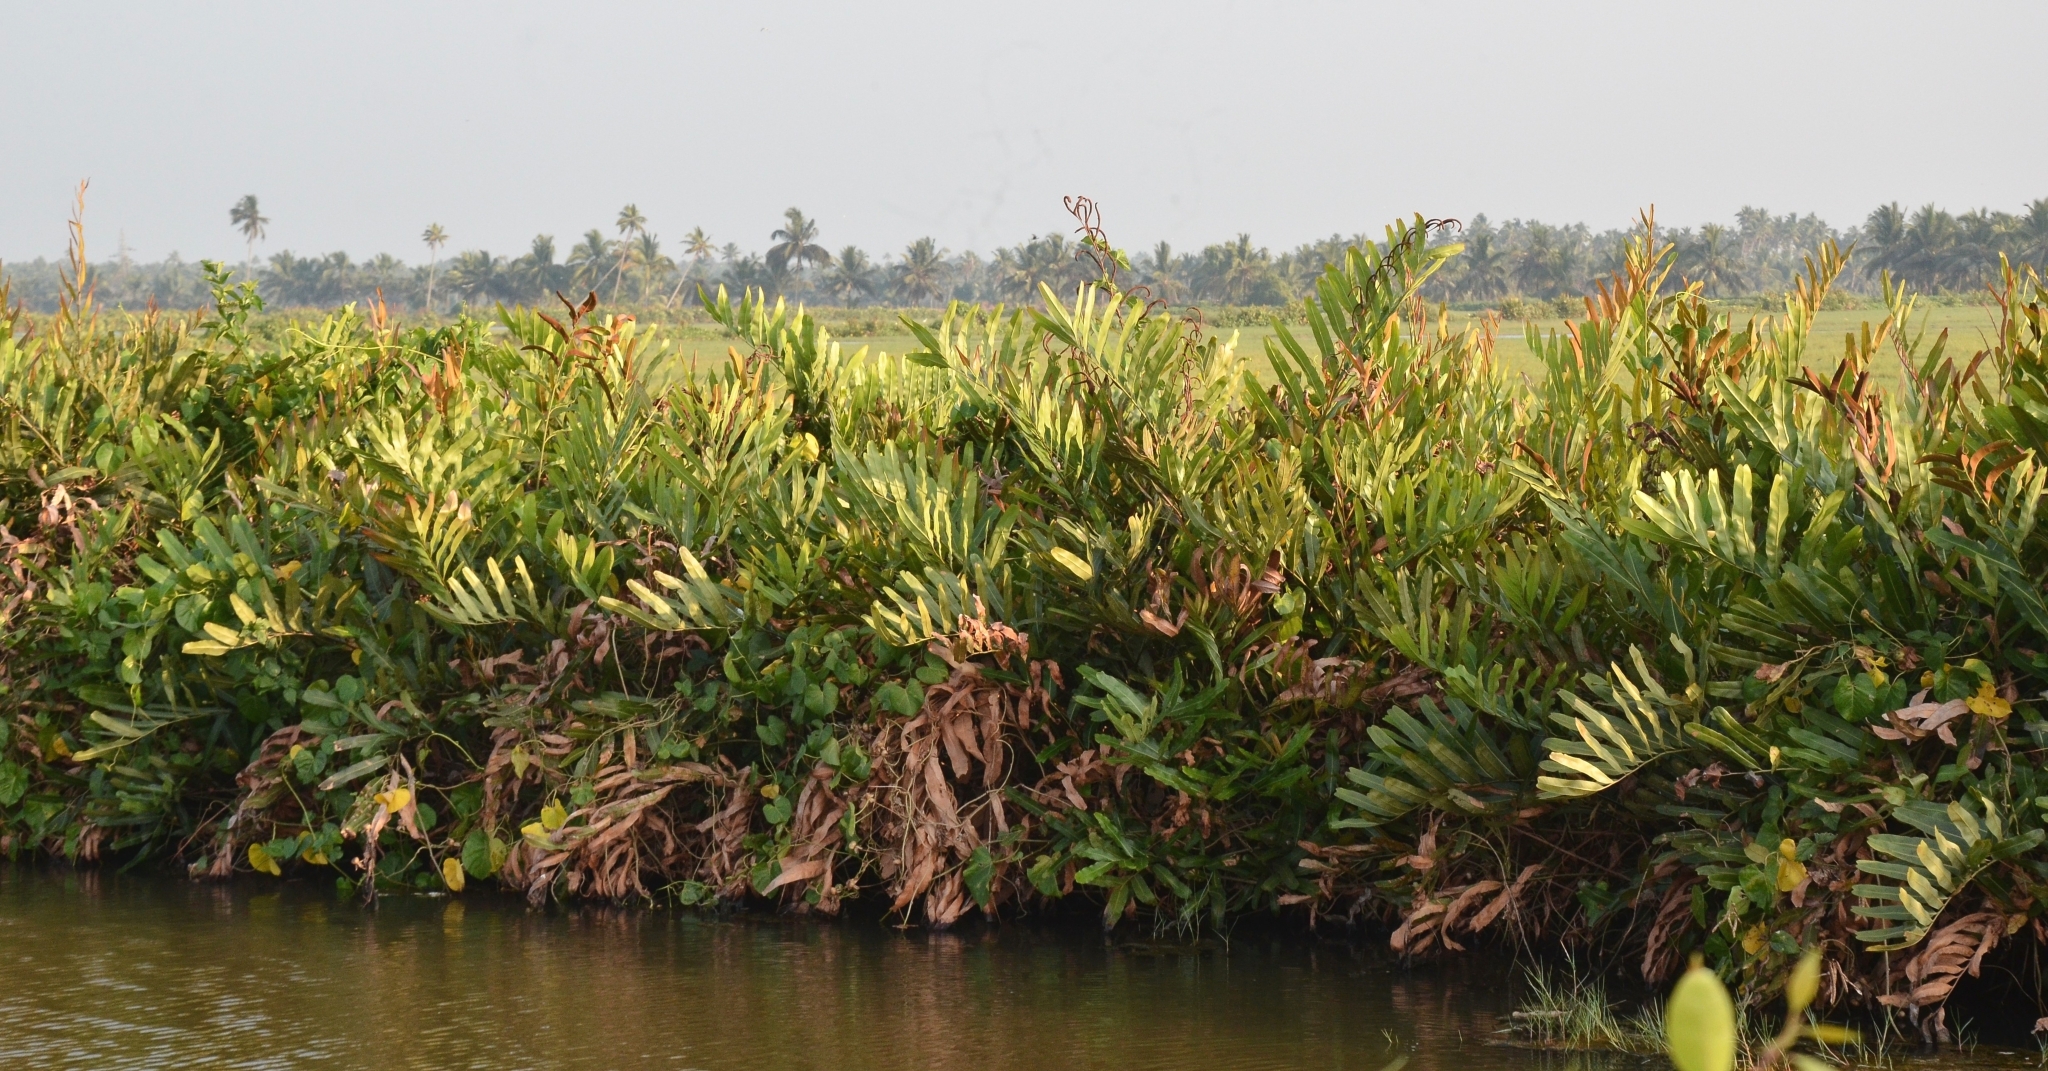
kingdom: Plantae
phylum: Tracheophyta
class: Polypodiopsida
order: Polypodiales
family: Pteridaceae
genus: Acrostichum
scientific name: Acrostichum aureum
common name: Leather fern
